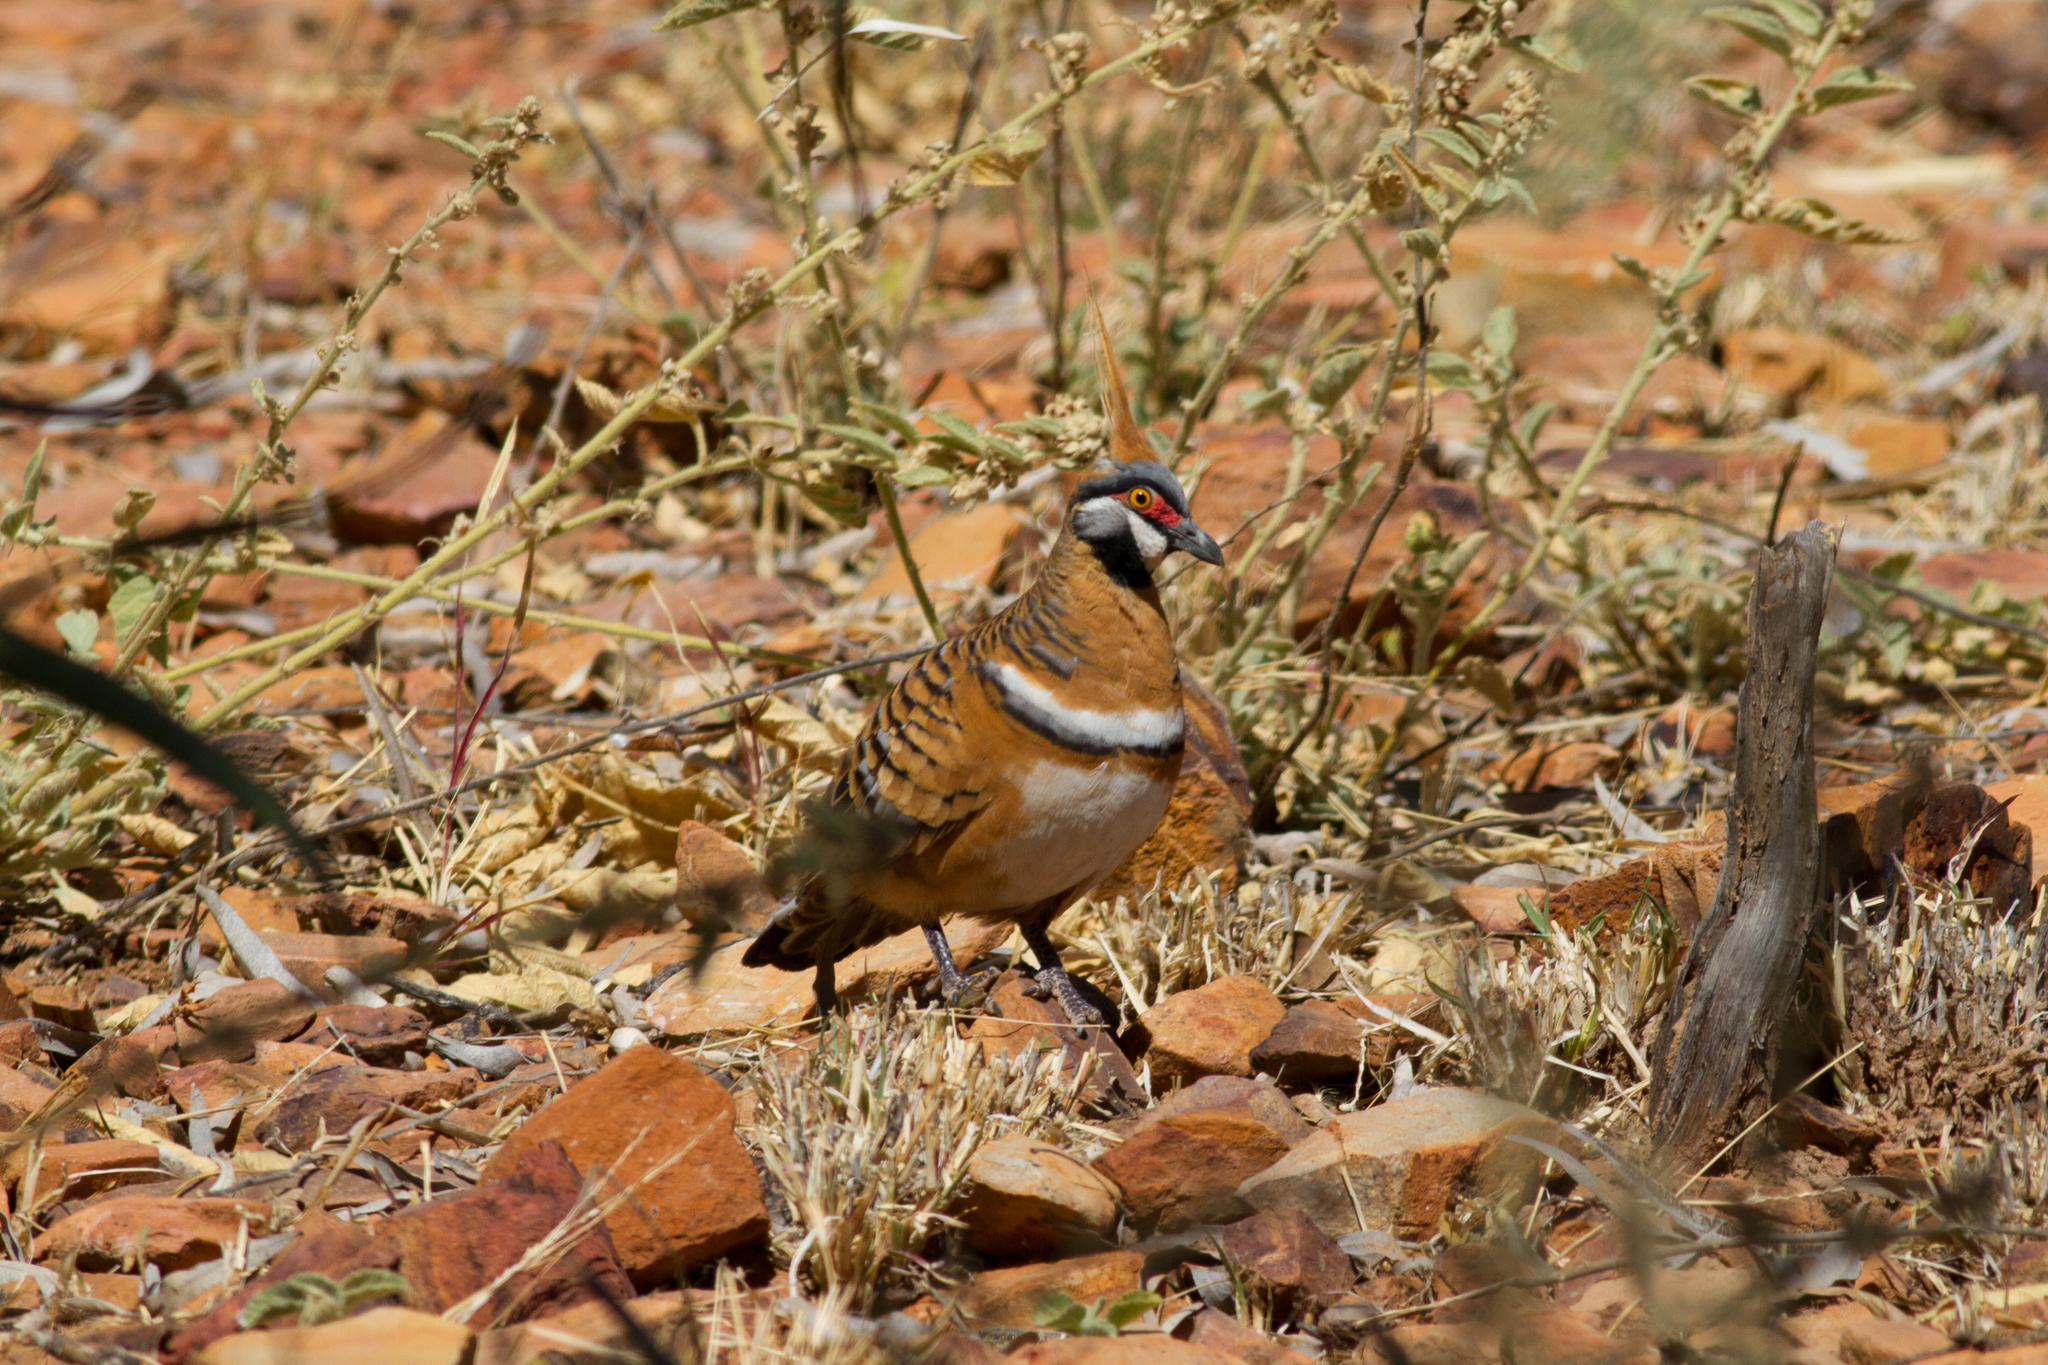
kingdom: Animalia
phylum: Chordata
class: Aves
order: Columbiformes
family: Columbidae
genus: Geophaps
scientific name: Geophaps plumifera
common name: Spinifex pigeon
